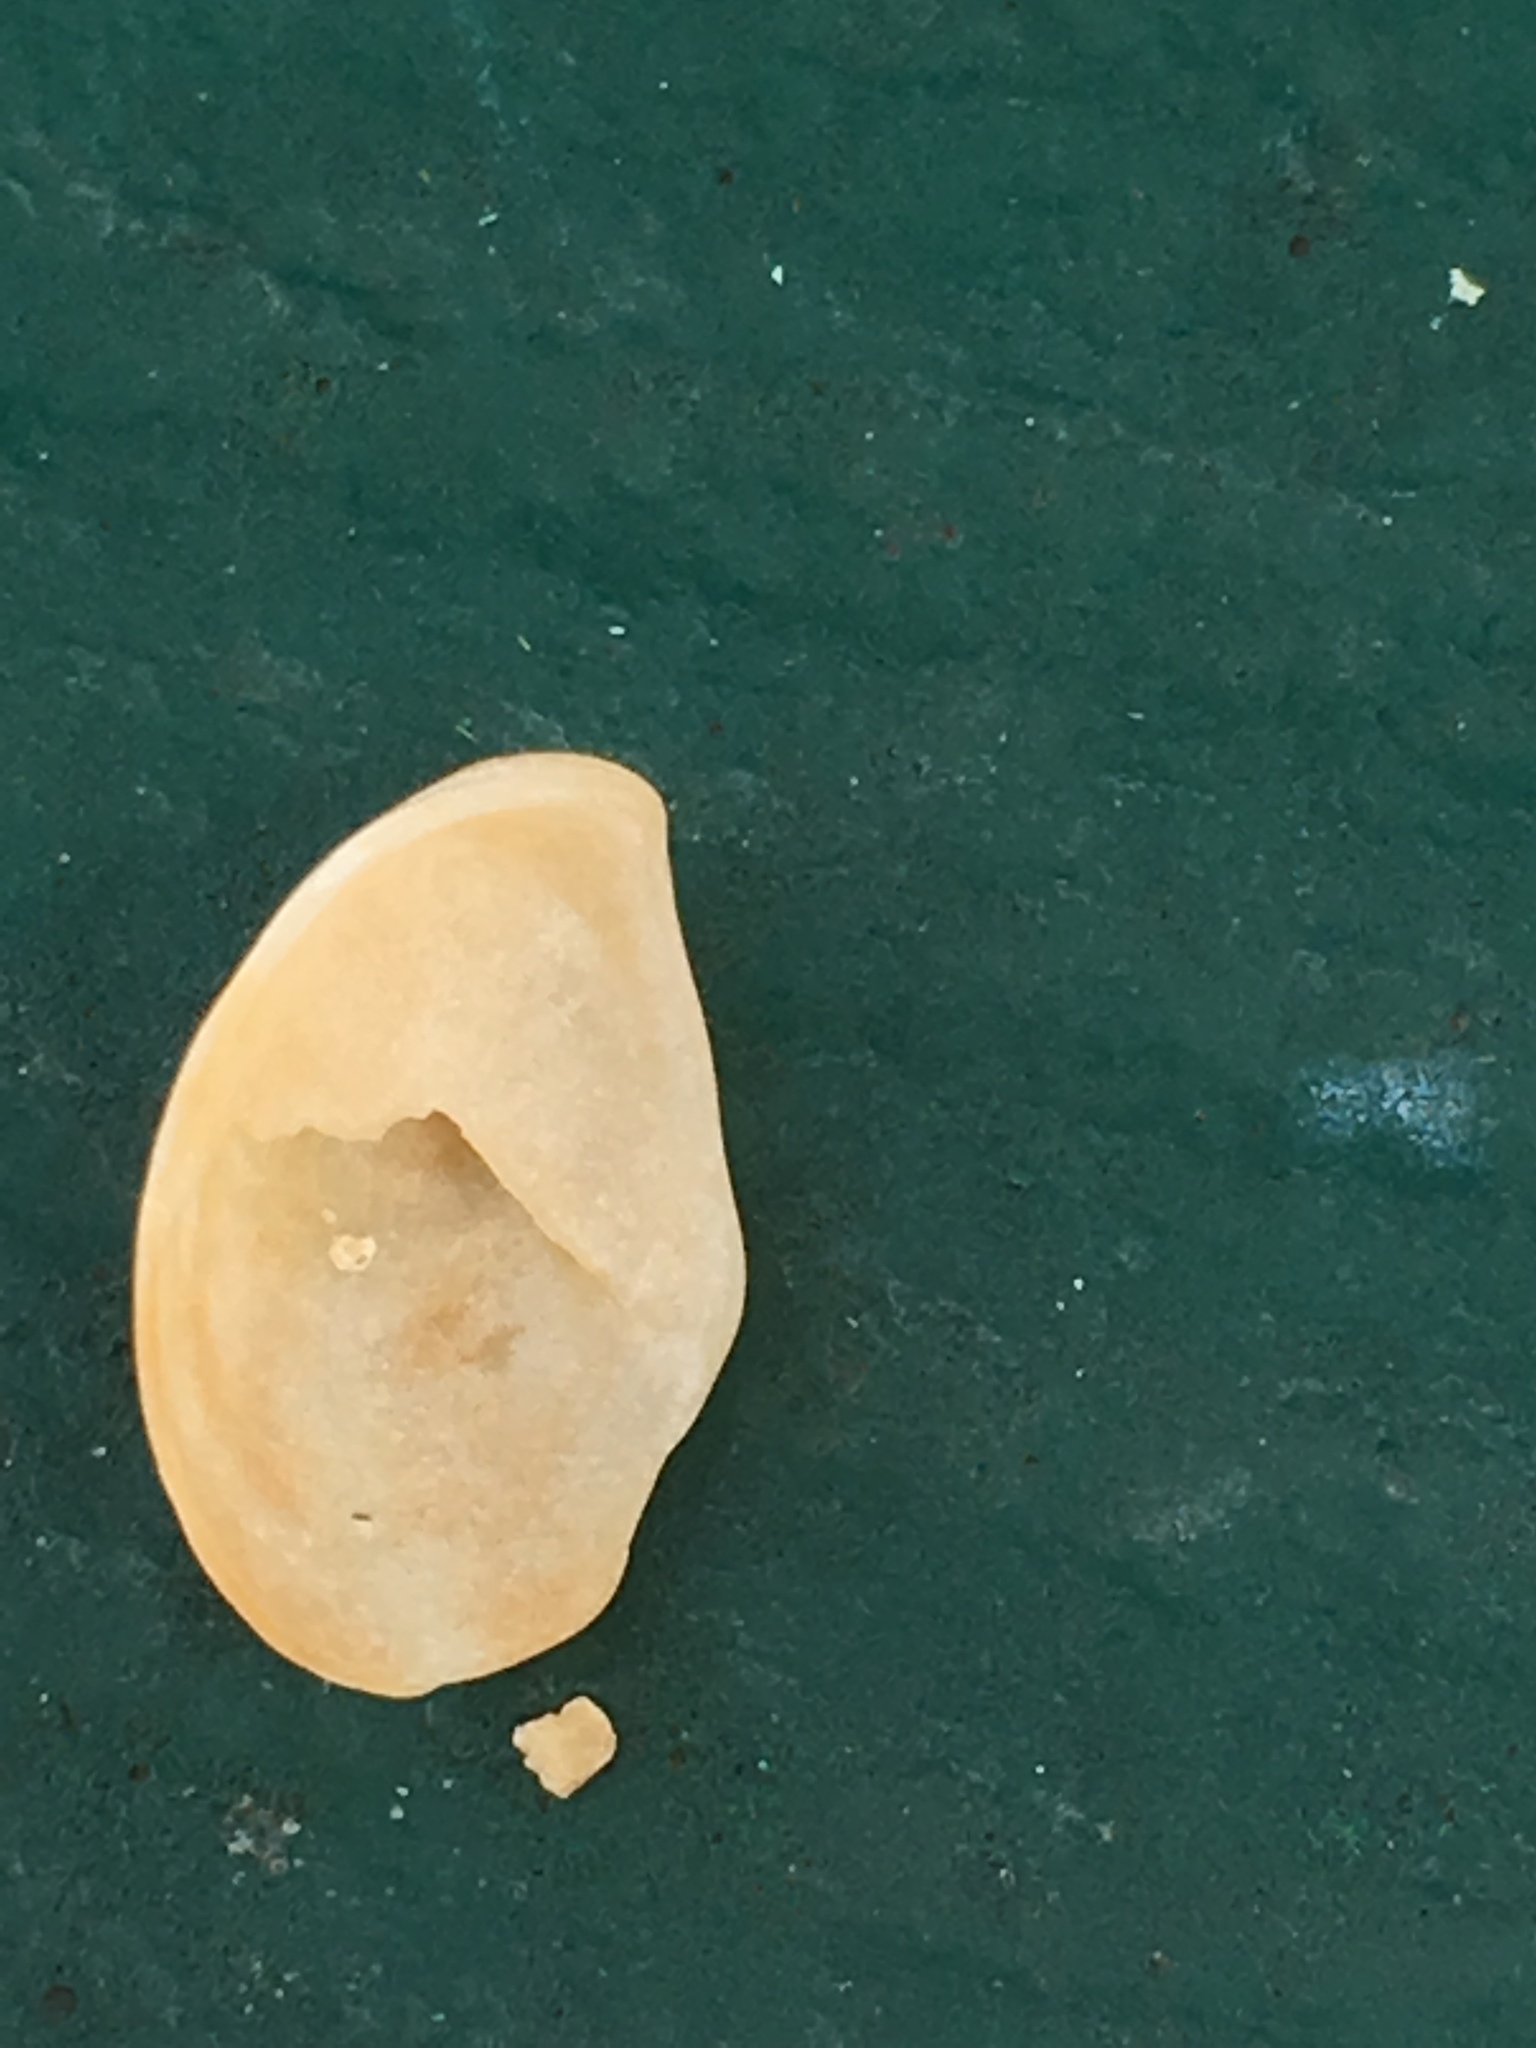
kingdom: Animalia
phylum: Mollusca
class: Gastropoda
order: Littorinimorpha
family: Calyptraeidae
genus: Crepidula
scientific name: Crepidula fornicata
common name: Slipper limpet
